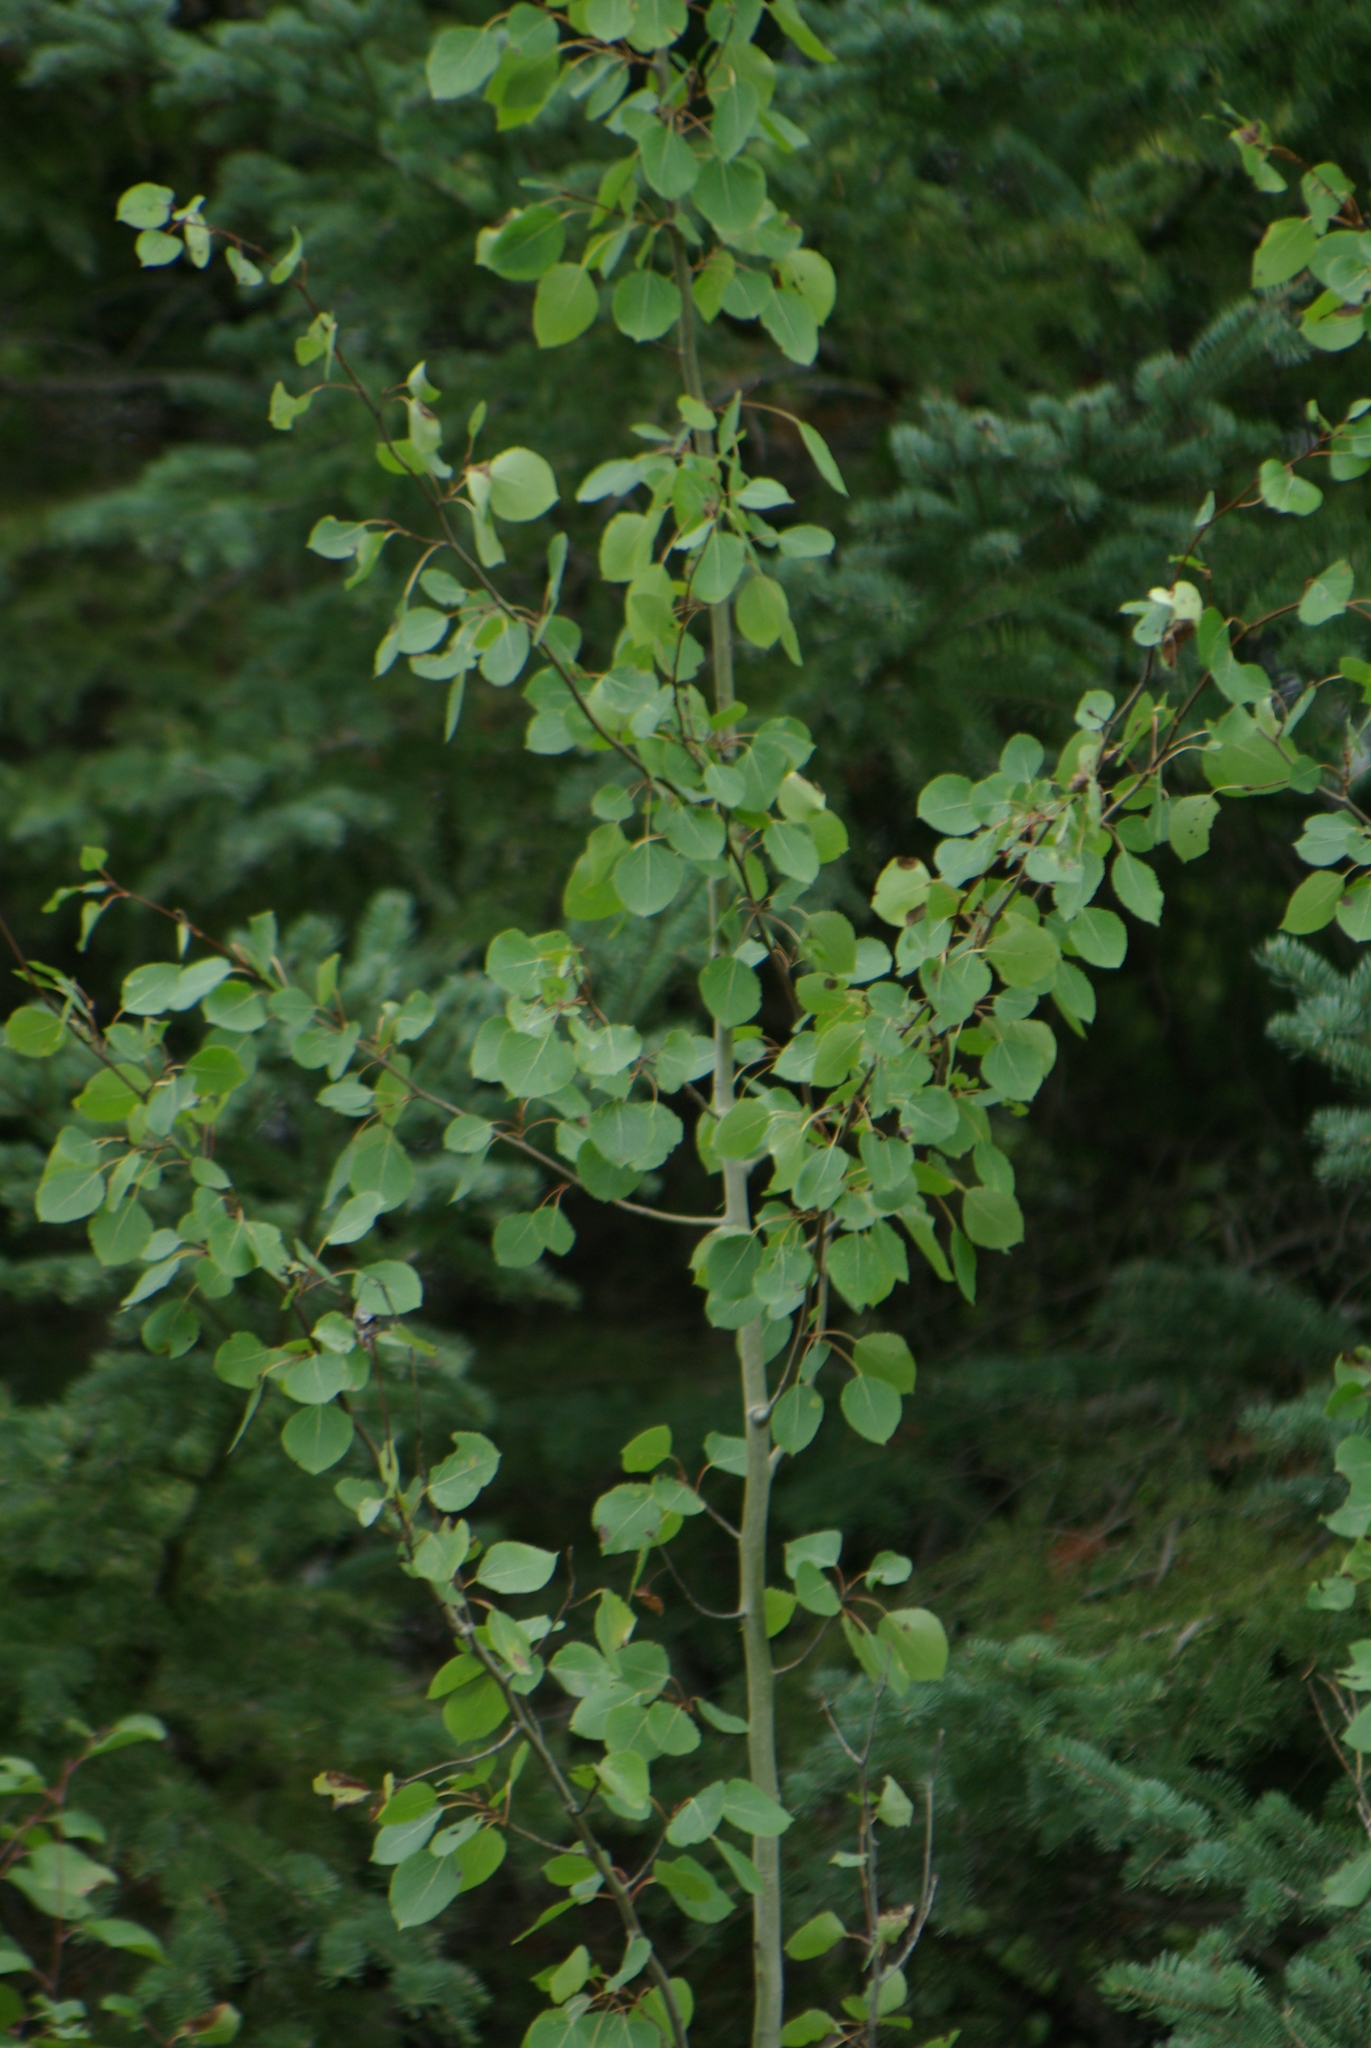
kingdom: Plantae
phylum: Tracheophyta
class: Magnoliopsida
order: Malpighiales
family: Salicaceae
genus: Populus
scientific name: Populus tremuloides
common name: Quaking aspen
